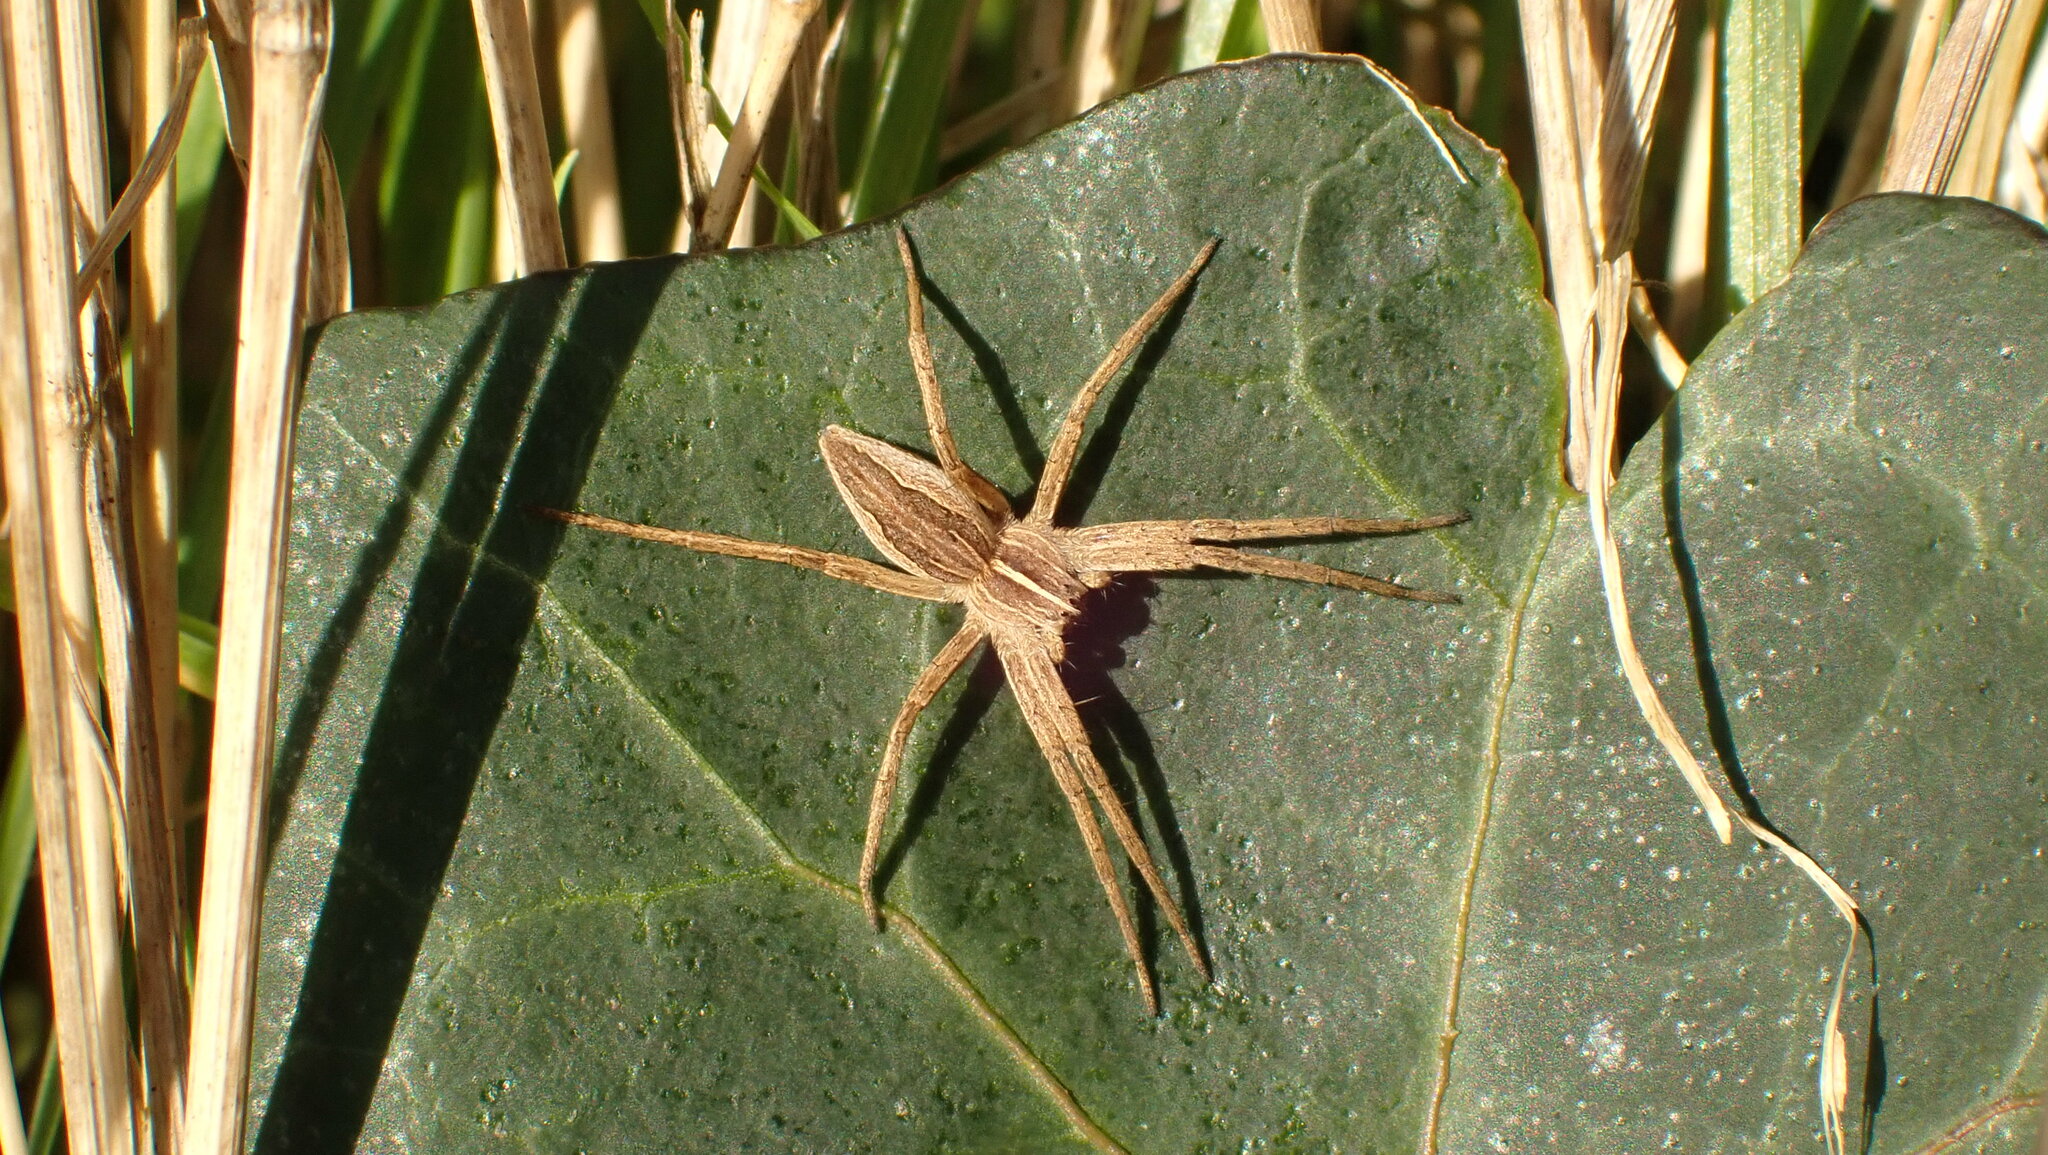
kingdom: Animalia
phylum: Arthropoda
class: Arachnida
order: Araneae
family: Pisauridae
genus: Pisaura
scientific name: Pisaura mirabilis
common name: Tent spider
